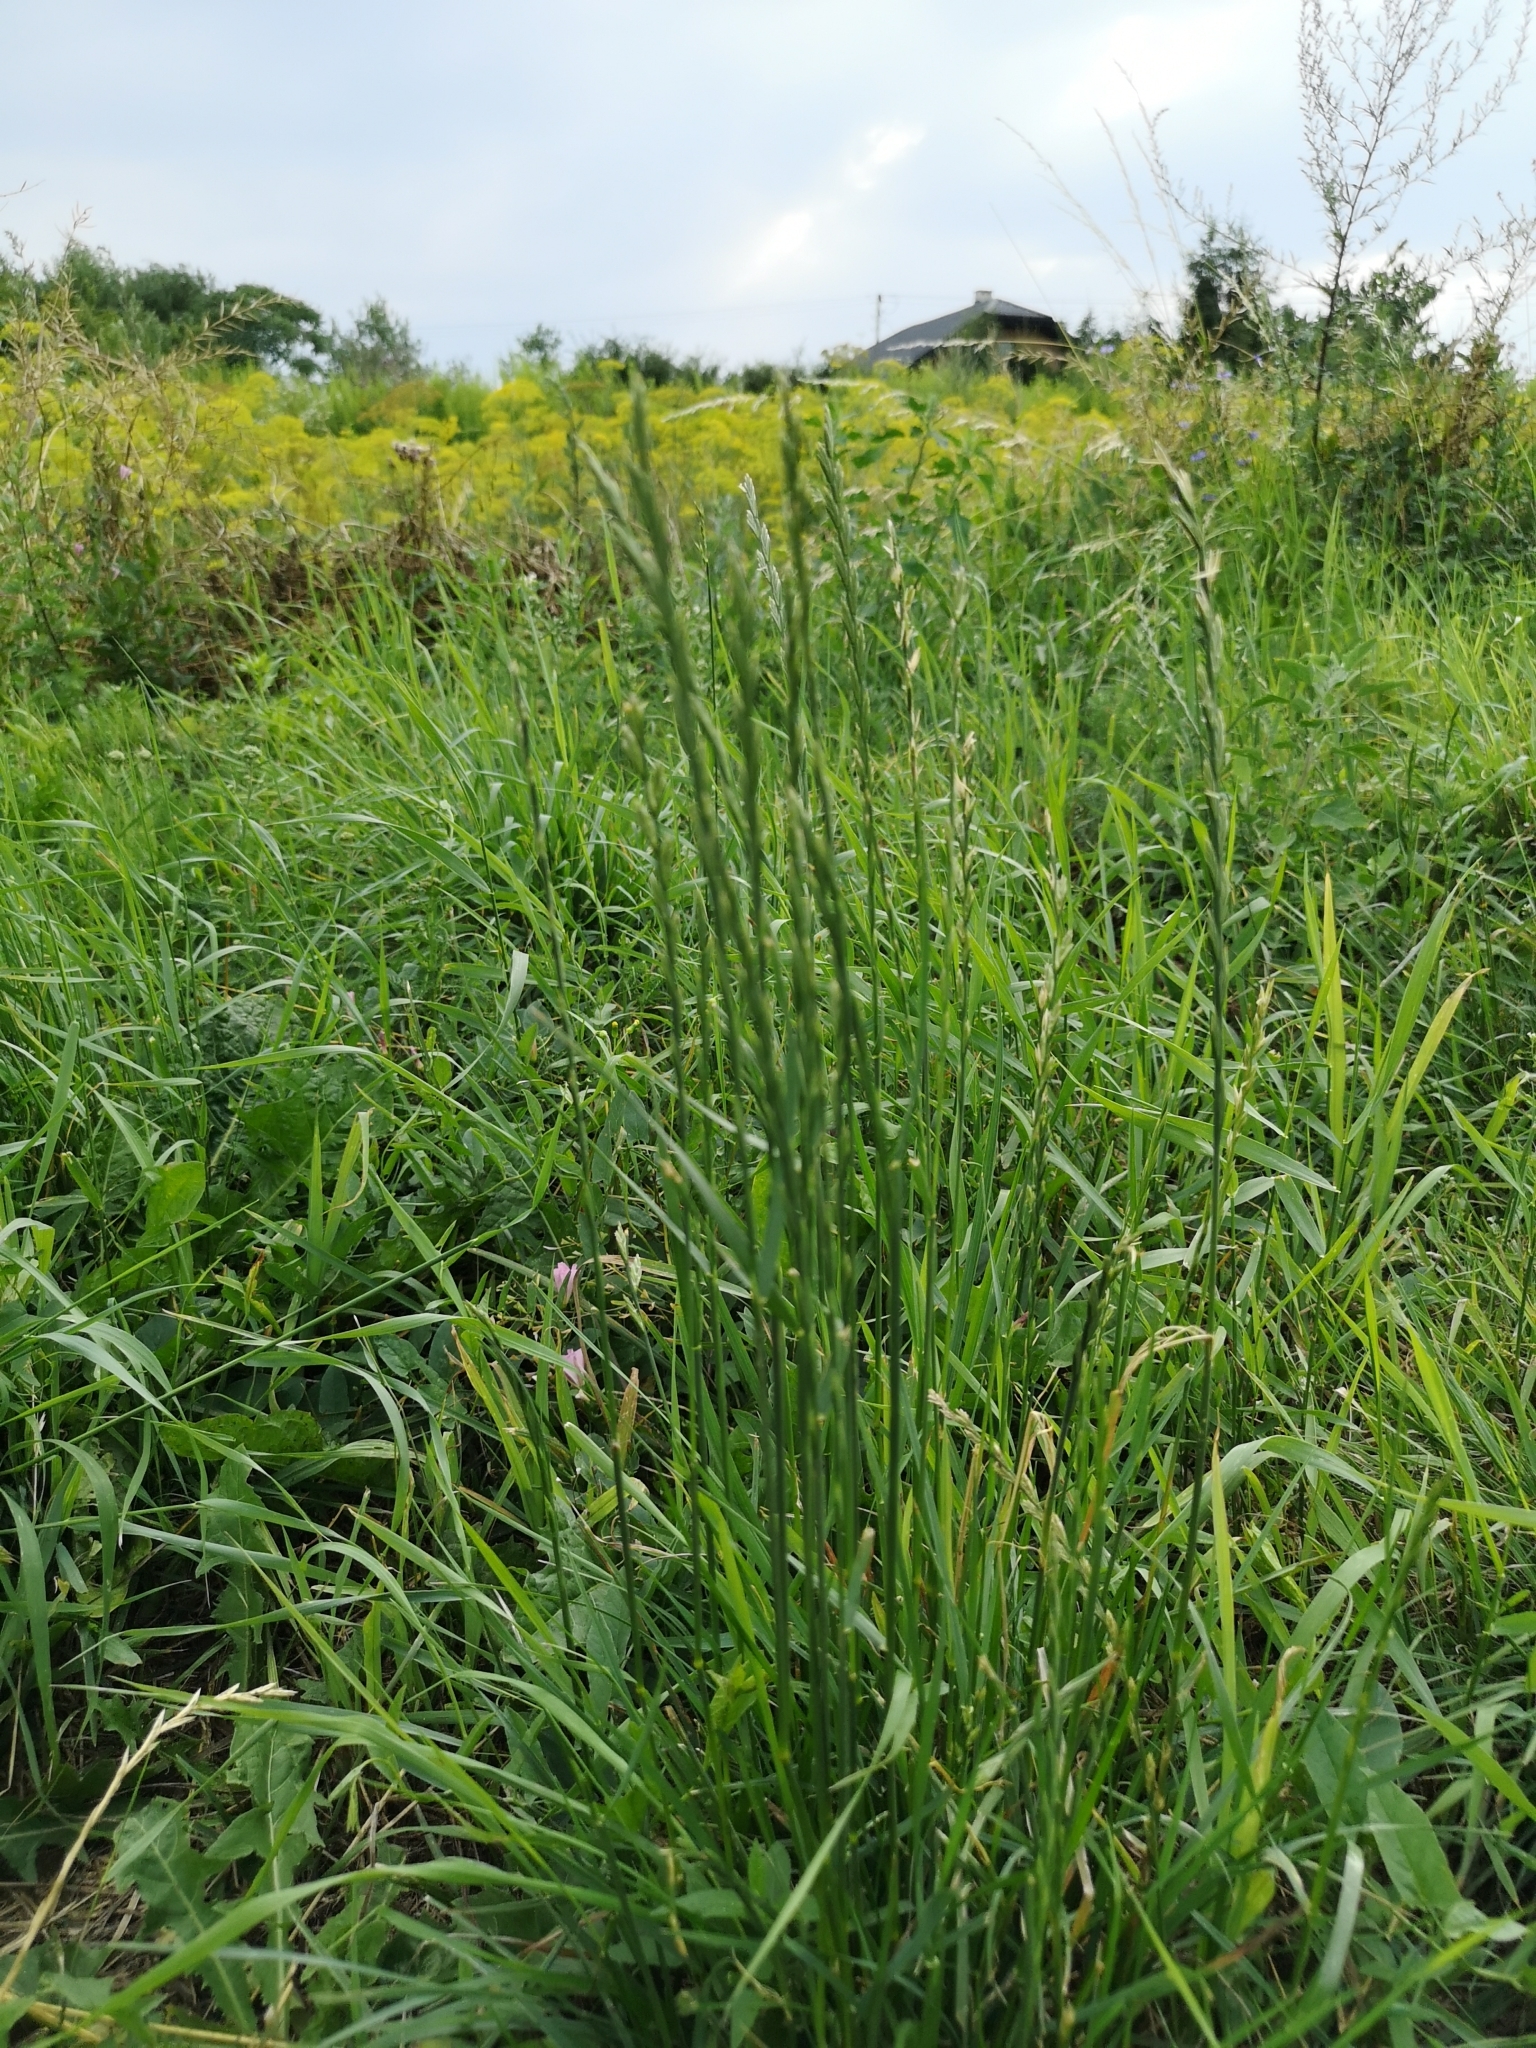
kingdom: Plantae
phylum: Tracheophyta
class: Liliopsida
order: Poales
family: Poaceae
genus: Lolium
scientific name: Lolium perenne
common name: Perennial ryegrass
